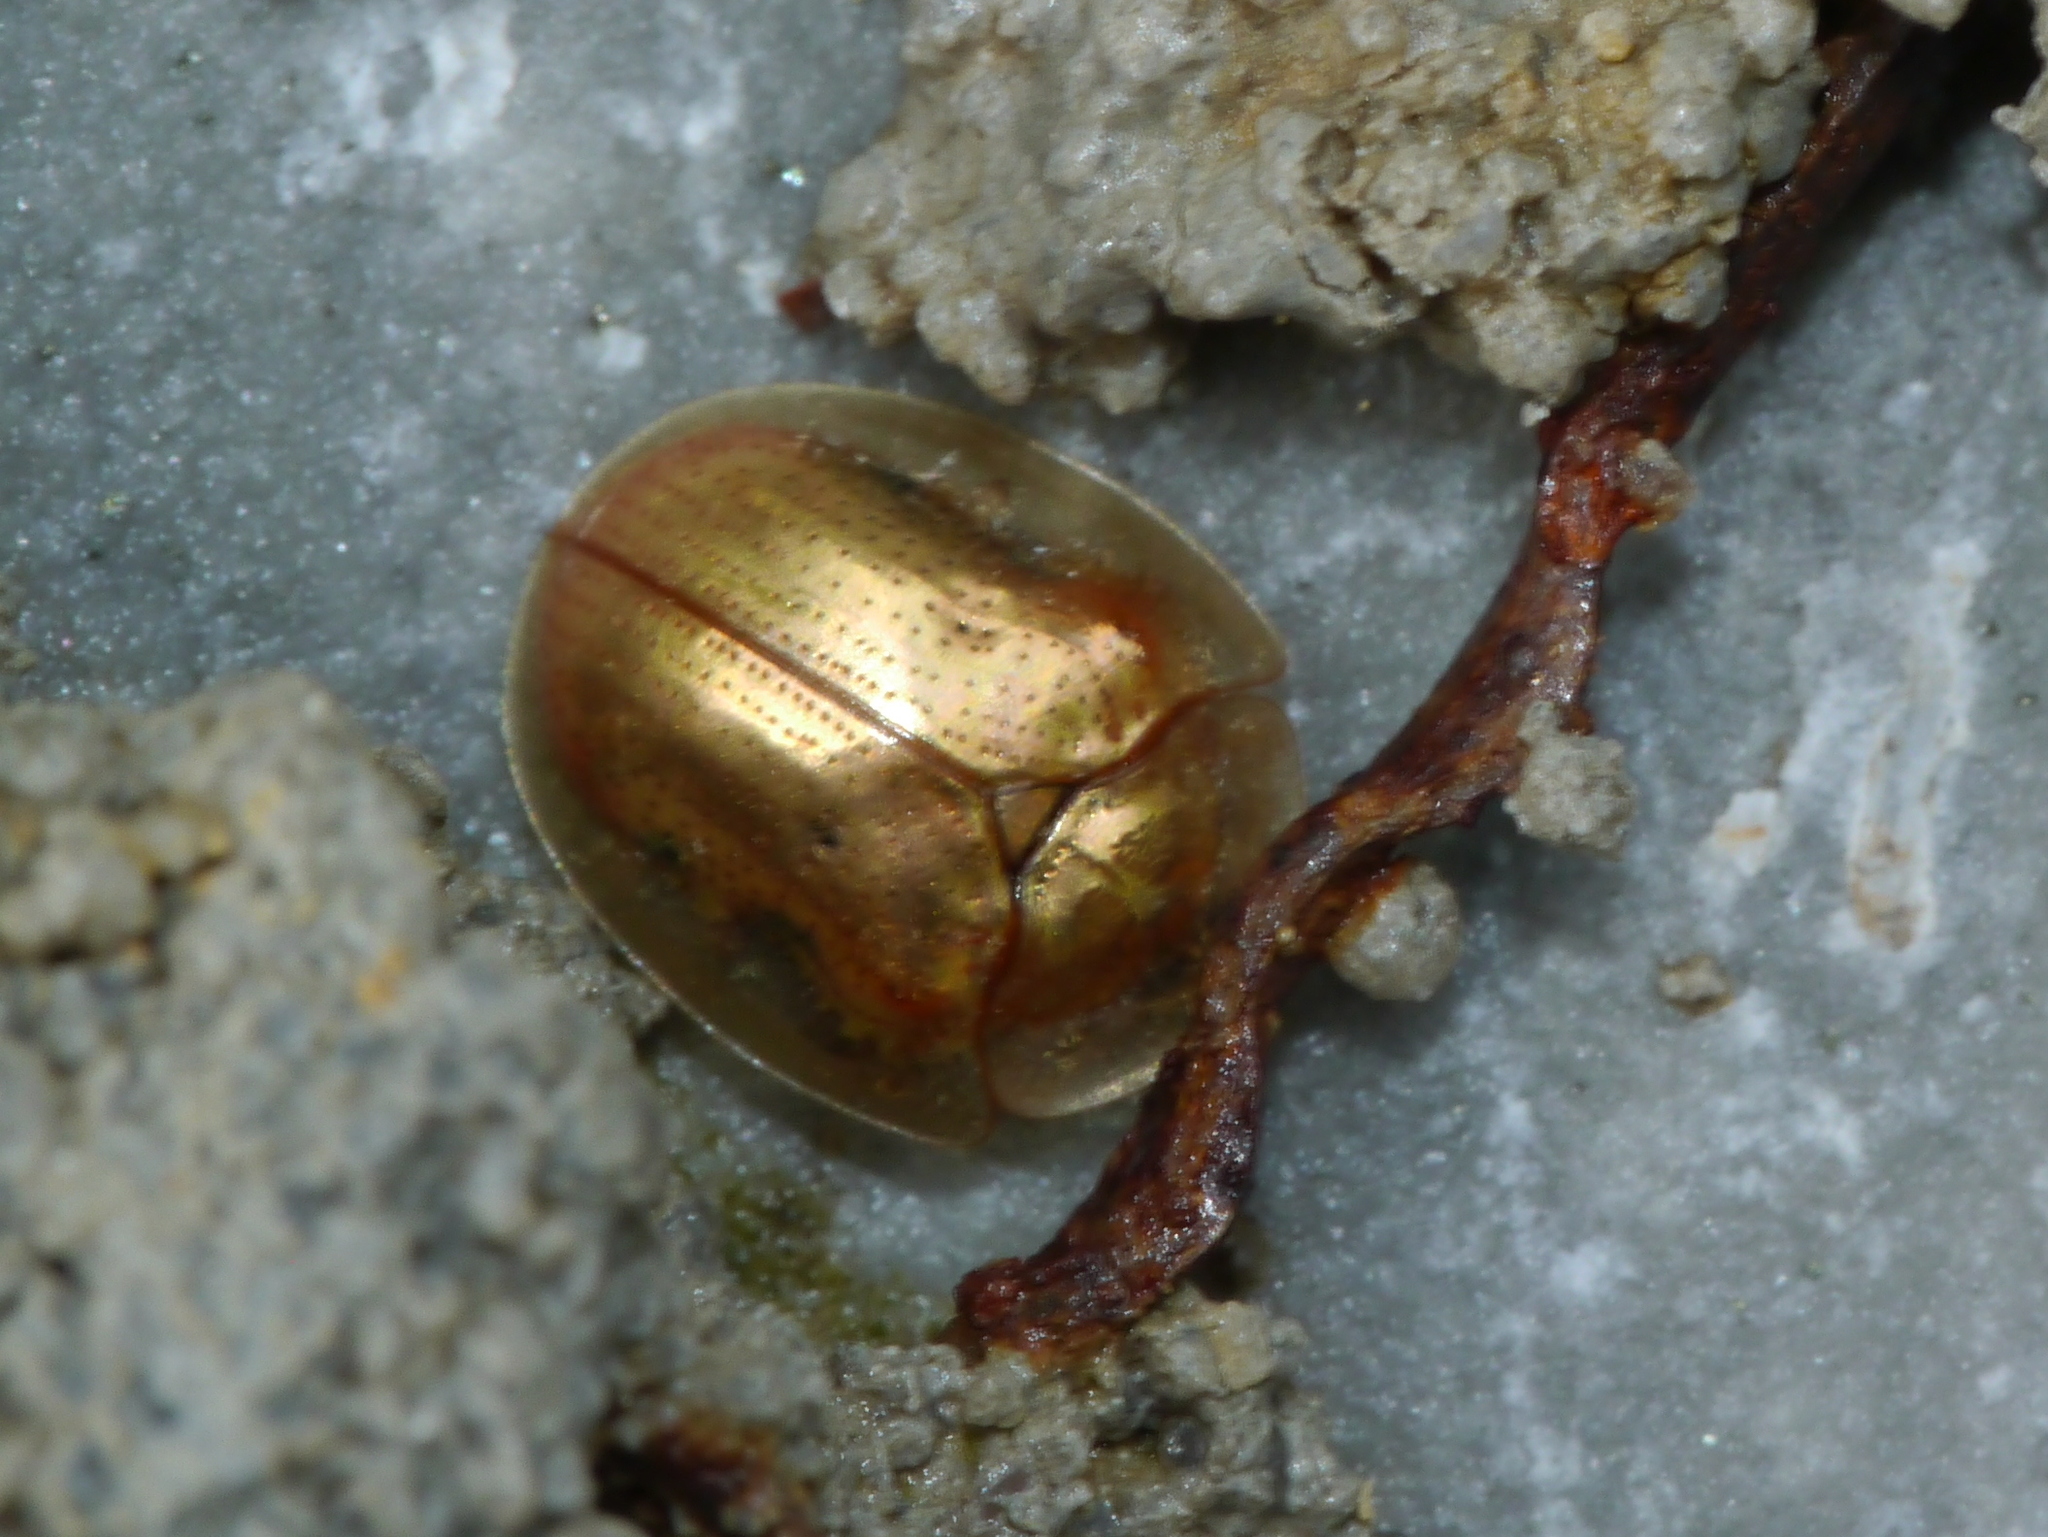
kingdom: Animalia
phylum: Arthropoda
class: Insecta
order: Coleoptera
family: Chrysomelidae
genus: Charidotella
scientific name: Charidotella sexpunctata
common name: Golden tortoise beetle
